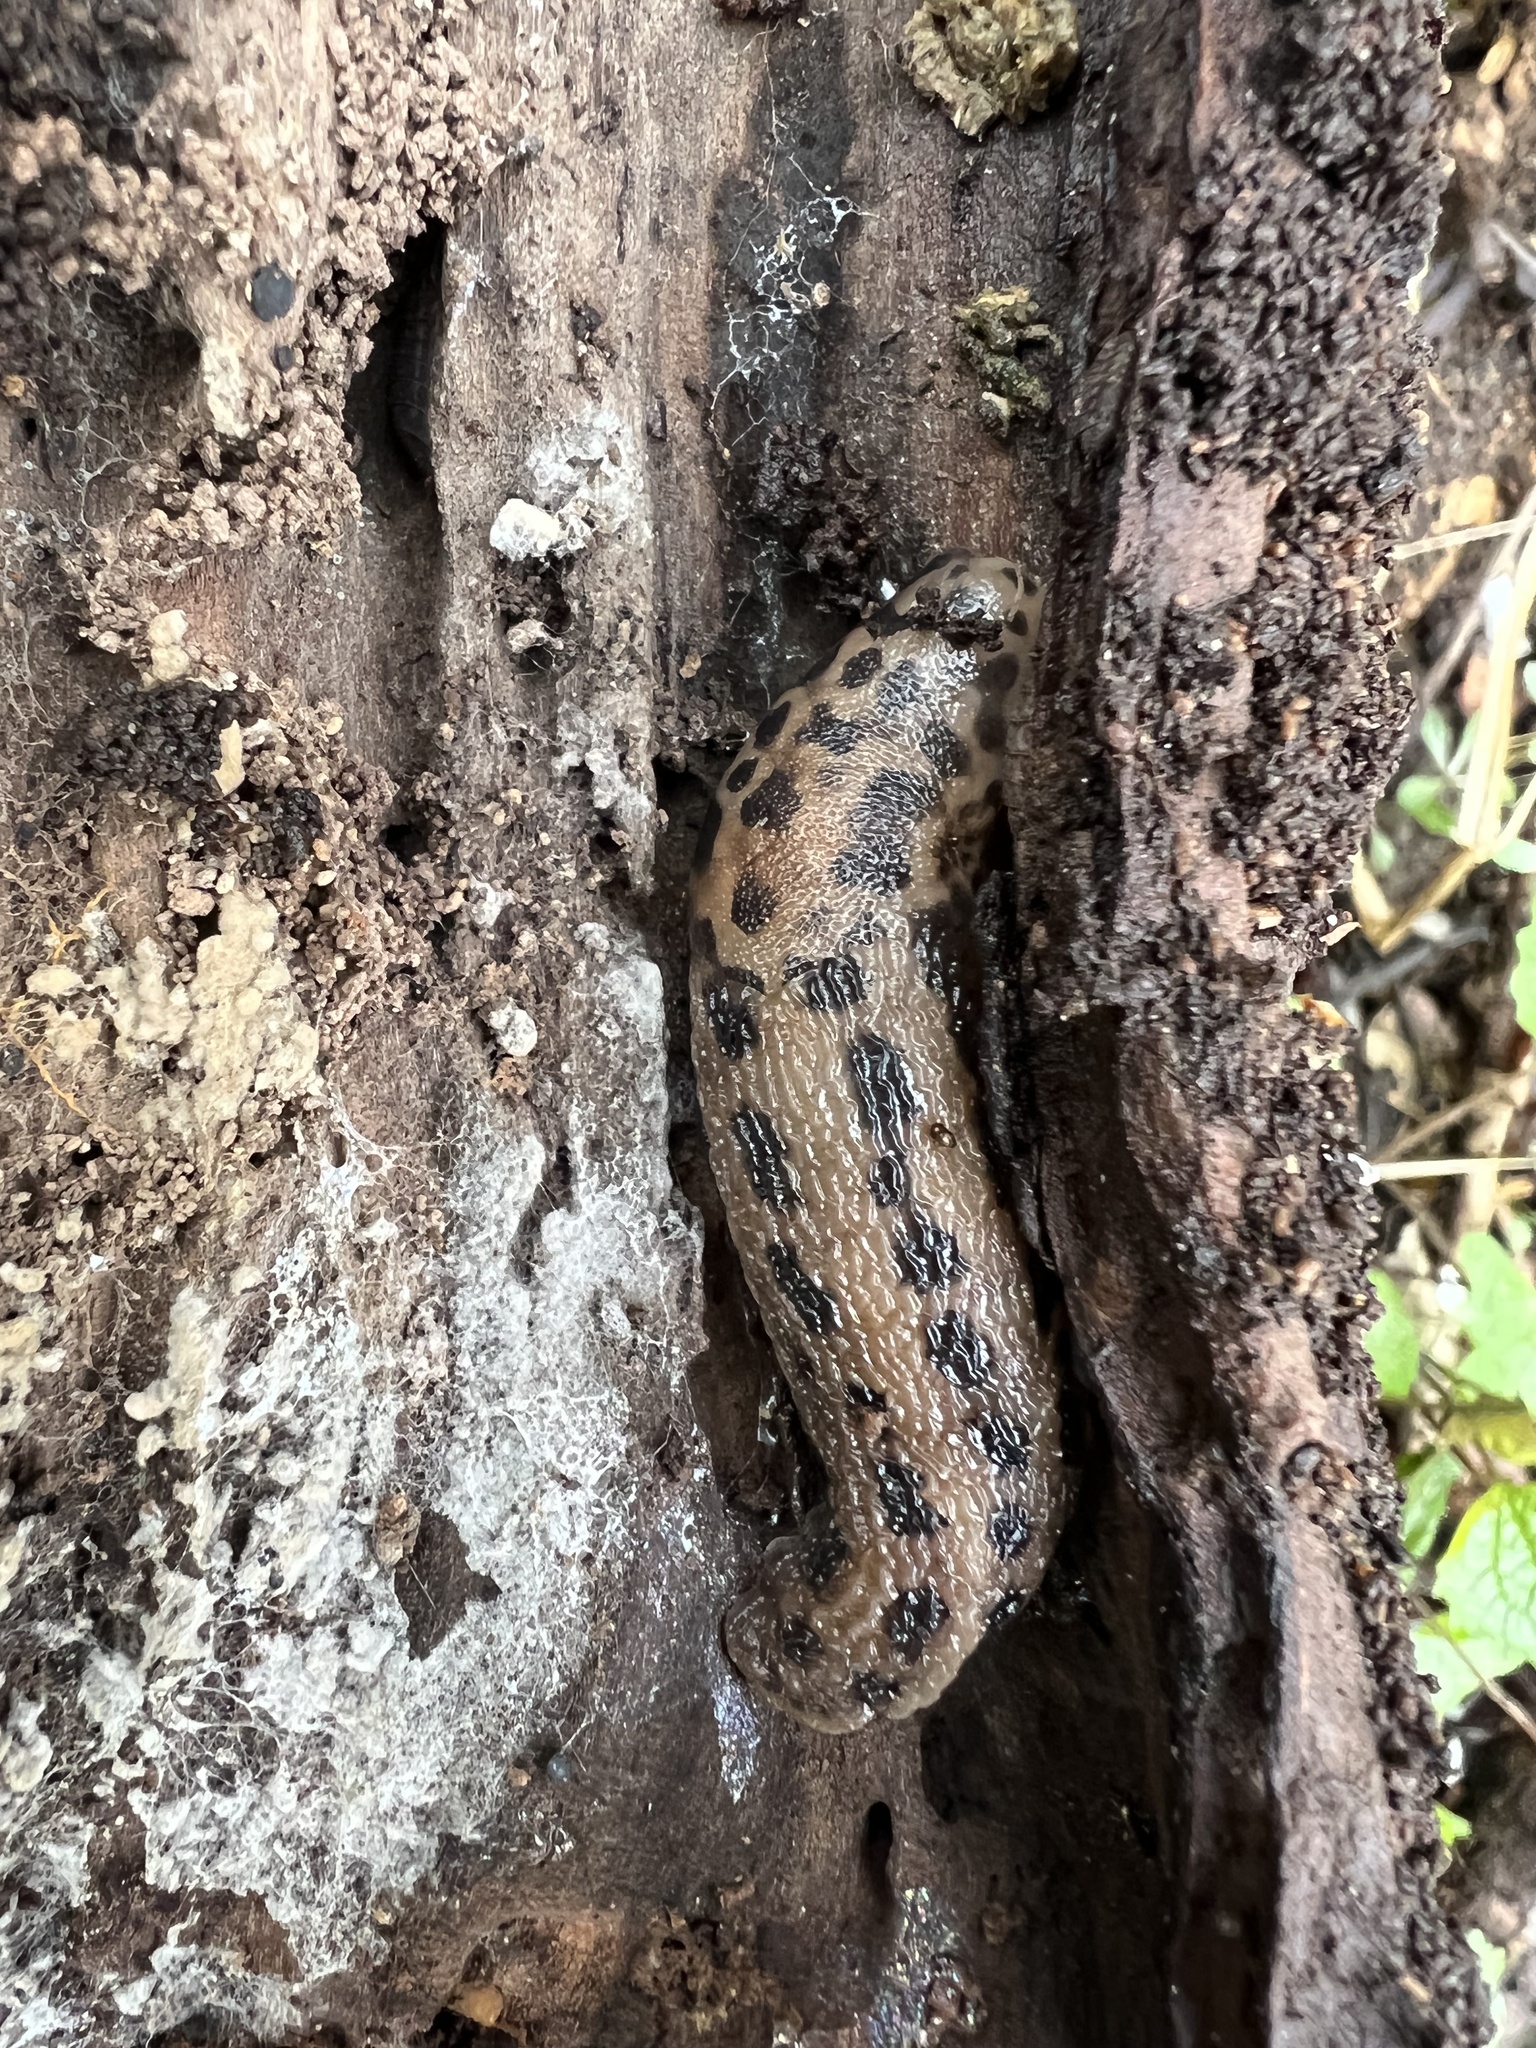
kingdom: Animalia
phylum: Mollusca
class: Gastropoda
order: Stylommatophora
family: Limacidae
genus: Limax
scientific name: Limax maximus
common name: Great grey slug
